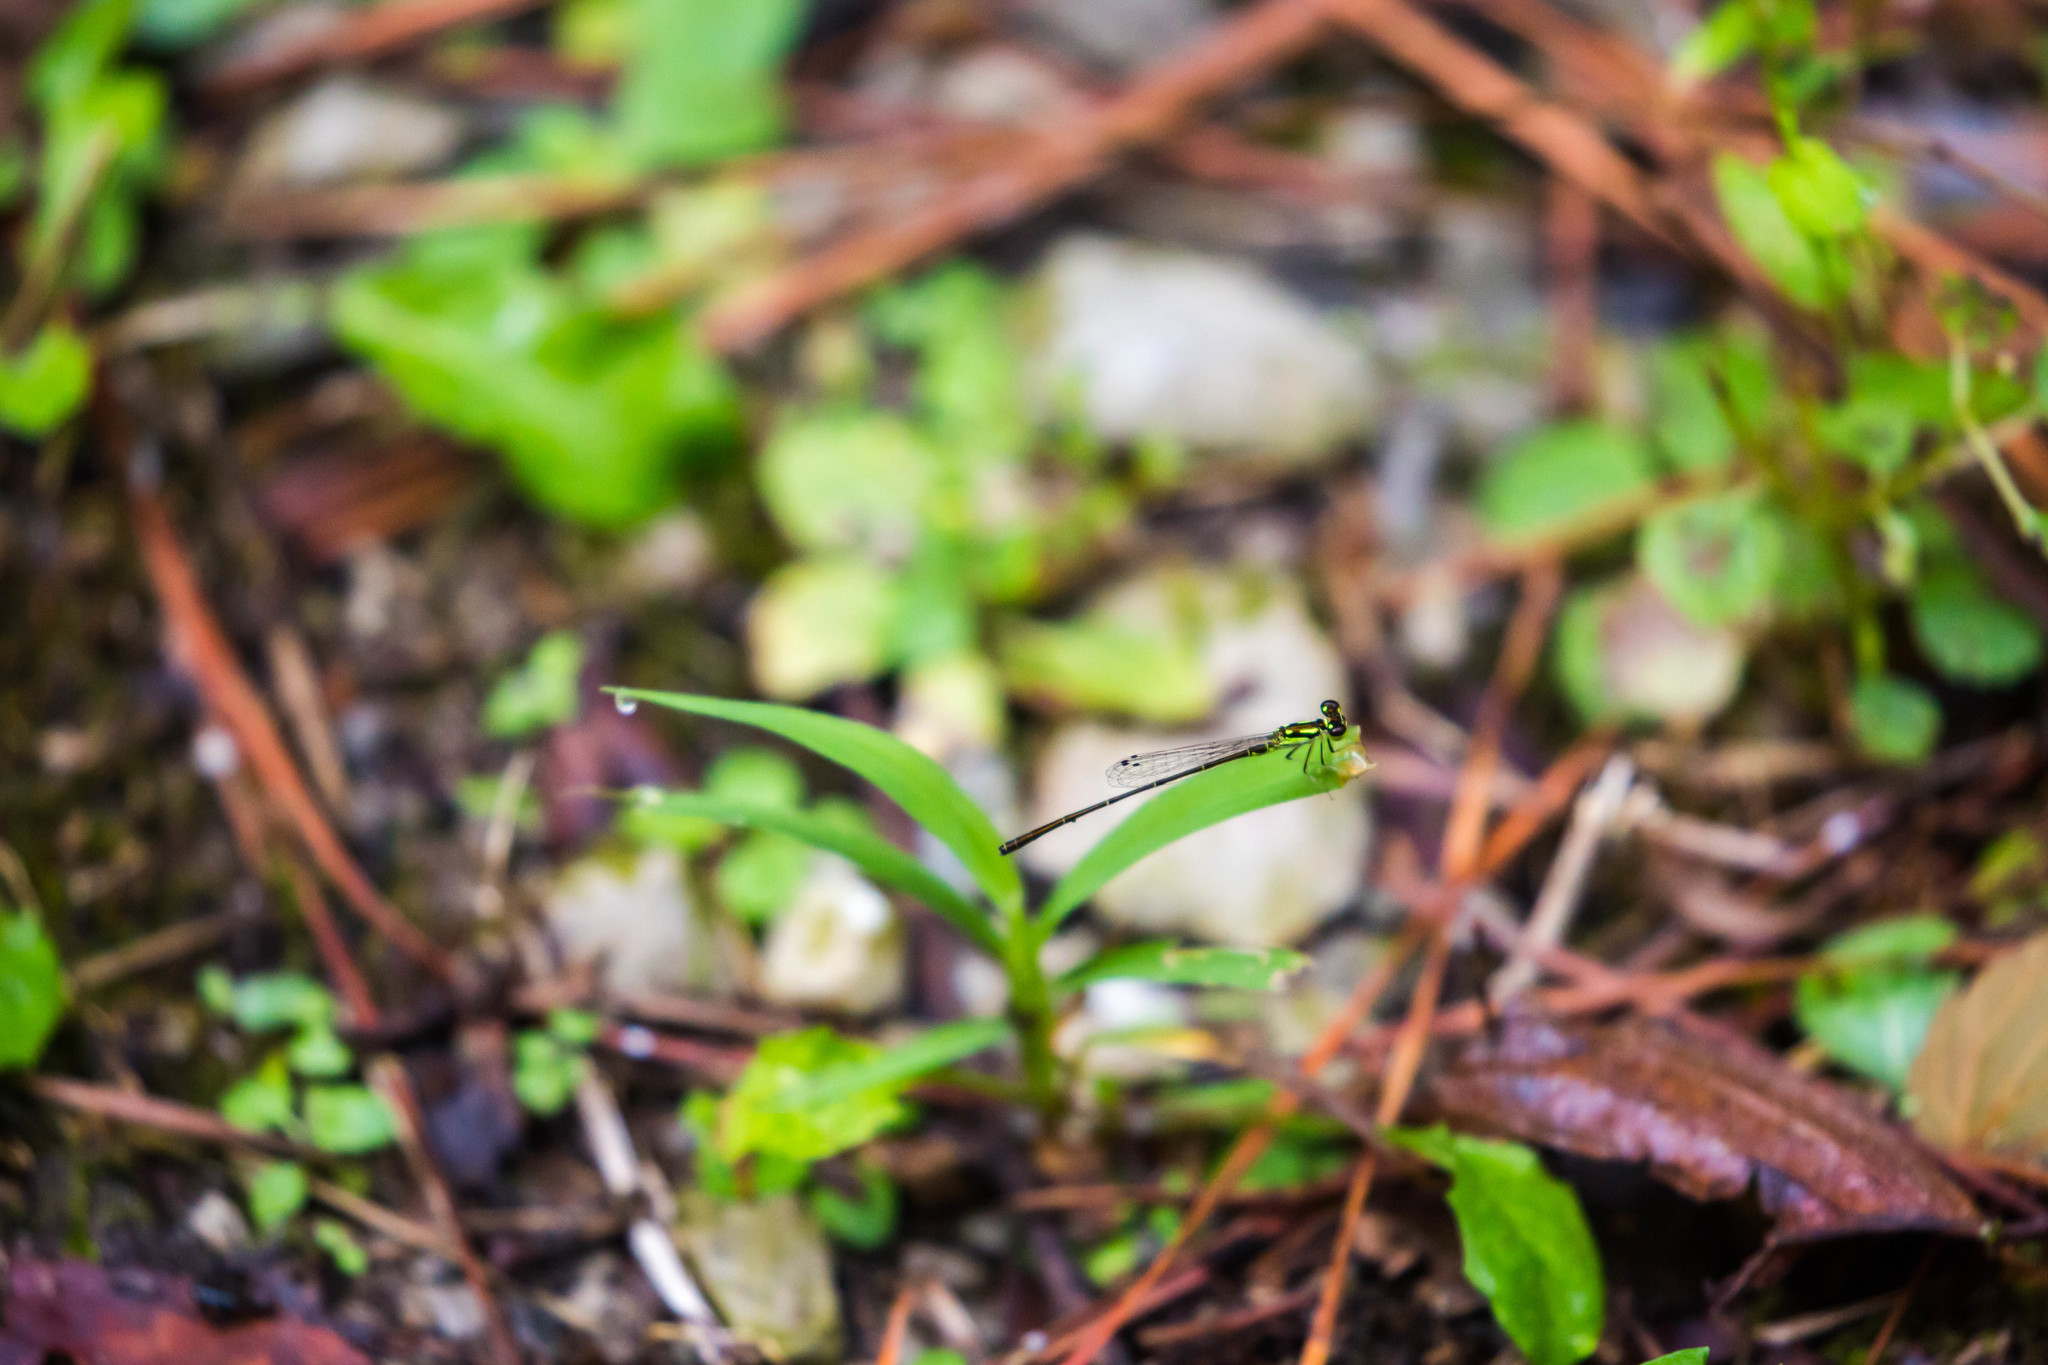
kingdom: Animalia
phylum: Arthropoda
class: Insecta
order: Odonata
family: Coenagrionidae
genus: Ischnura
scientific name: Ischnura posita
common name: Fragile forktail
